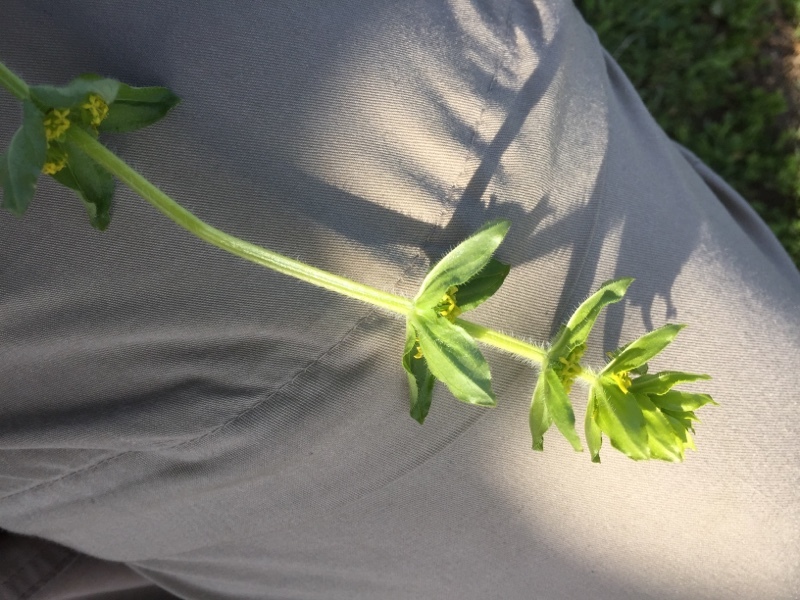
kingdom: Plantae
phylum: Tracheophyta
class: Magnoliopsida
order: Gentianales
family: Rubiaceae
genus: Cruciata
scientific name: Cruciata laevipes
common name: Crosswort
